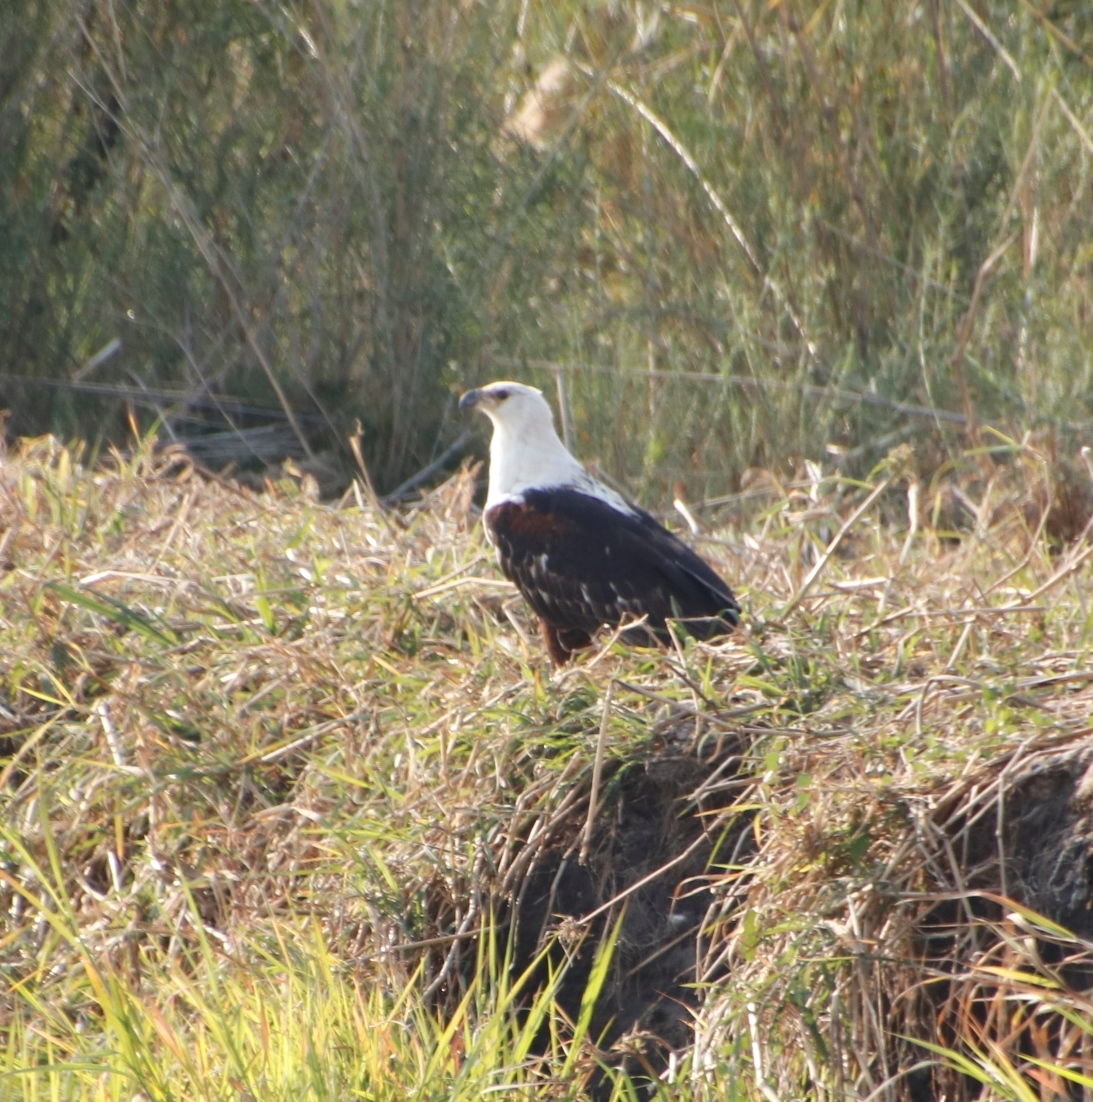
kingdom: Animalia
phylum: Chordata
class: Aves
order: Accipitriformes
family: Accipitridae
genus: Haliaeetus
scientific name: Haliaeetus vocifer
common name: African fish eagle
